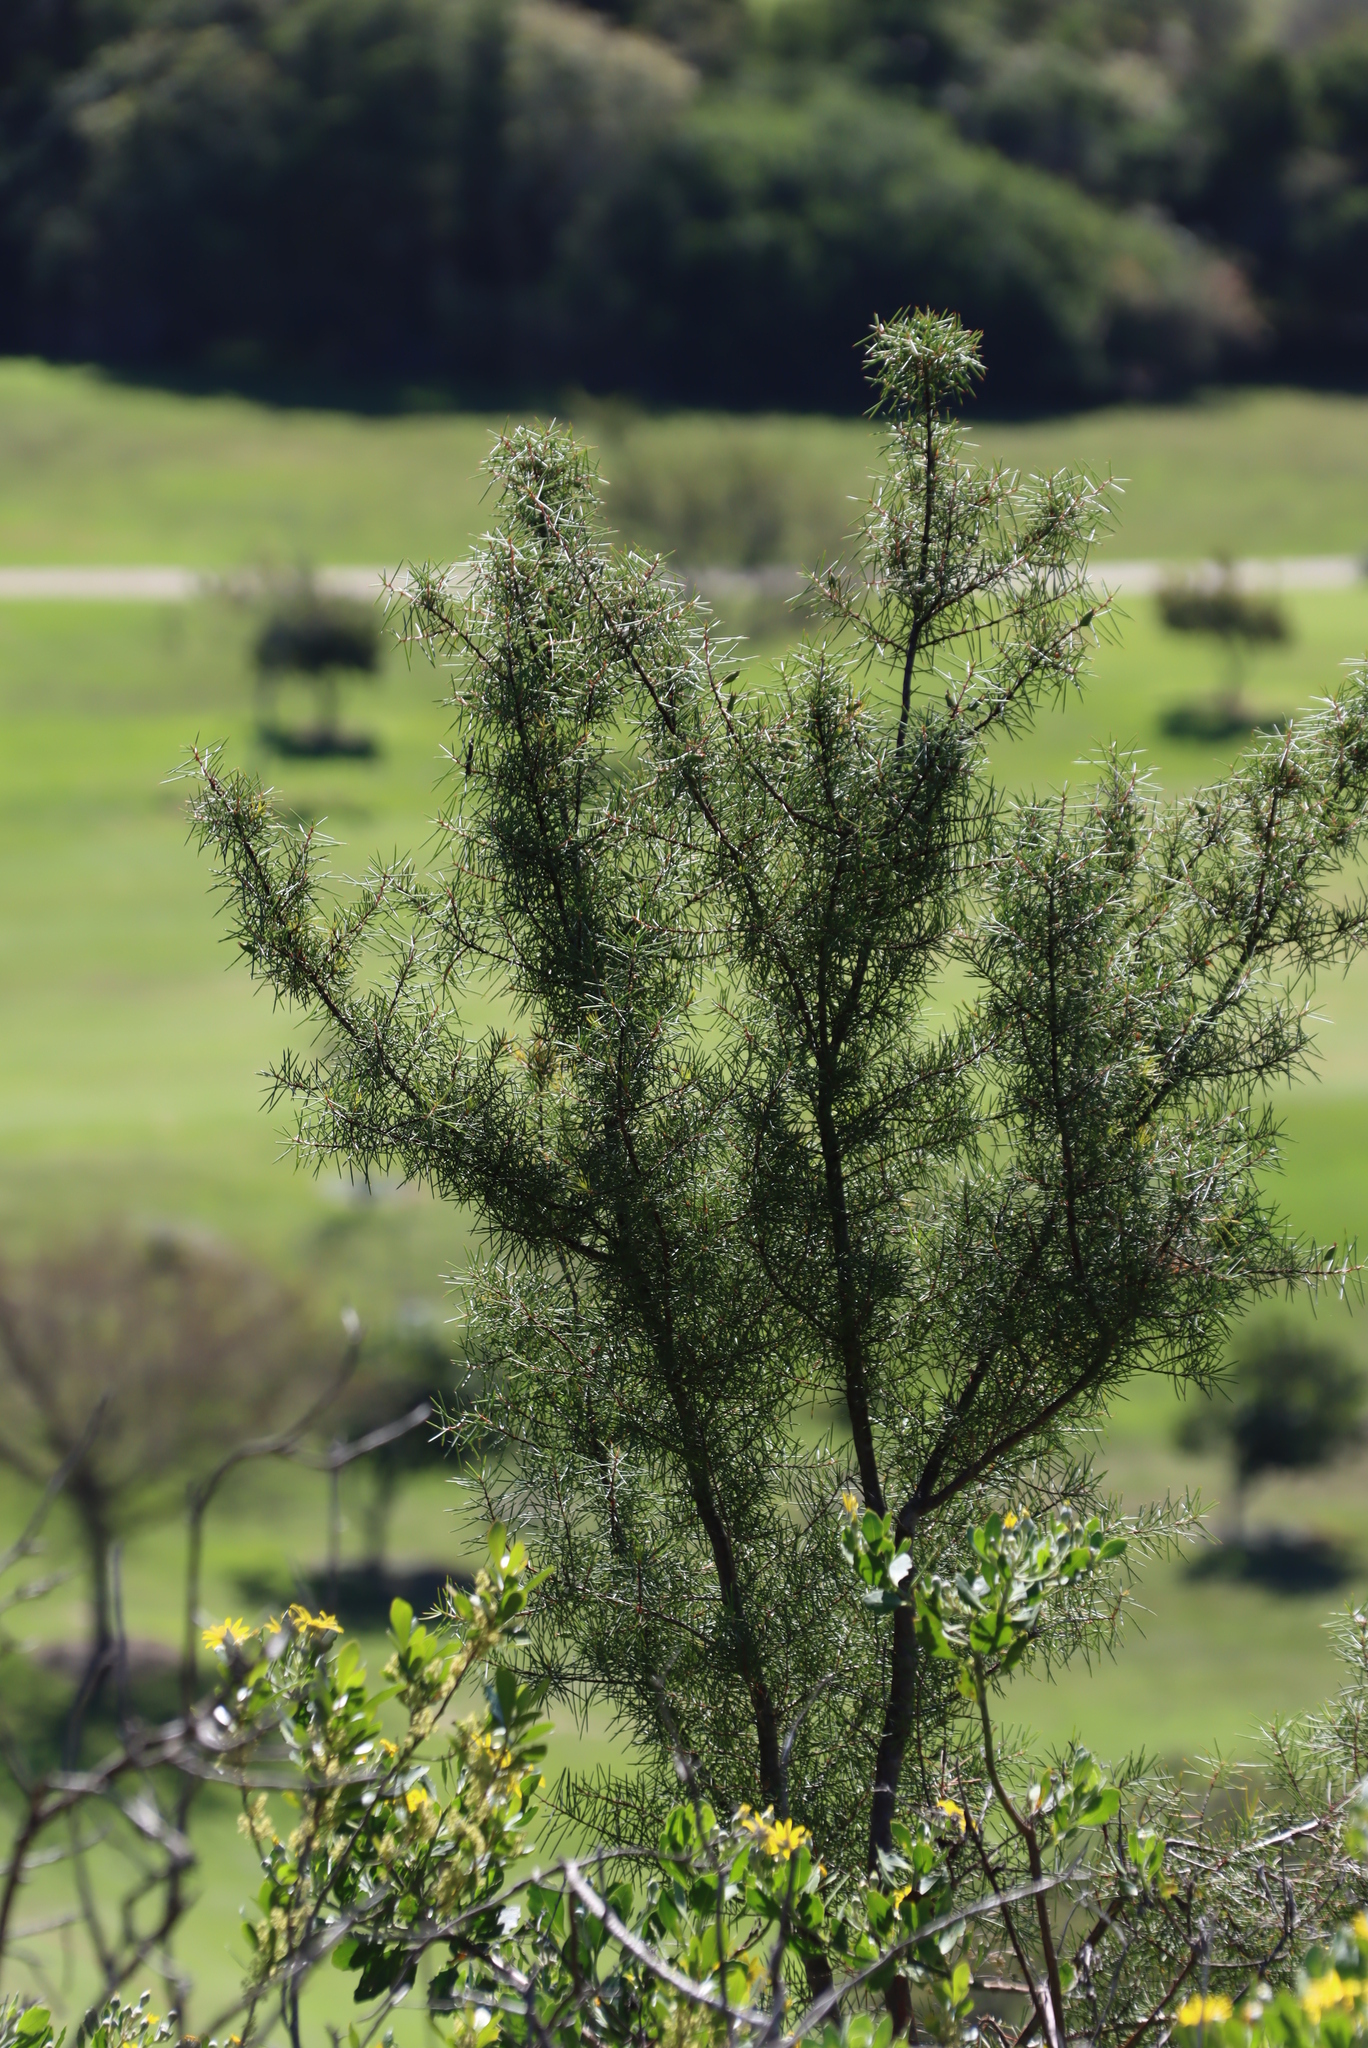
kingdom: Plantae
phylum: Tracheophyta
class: Magnoliopsida
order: Proteales
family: Proteaceae
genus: Hakea
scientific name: Hakea sericea
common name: Needle bush
